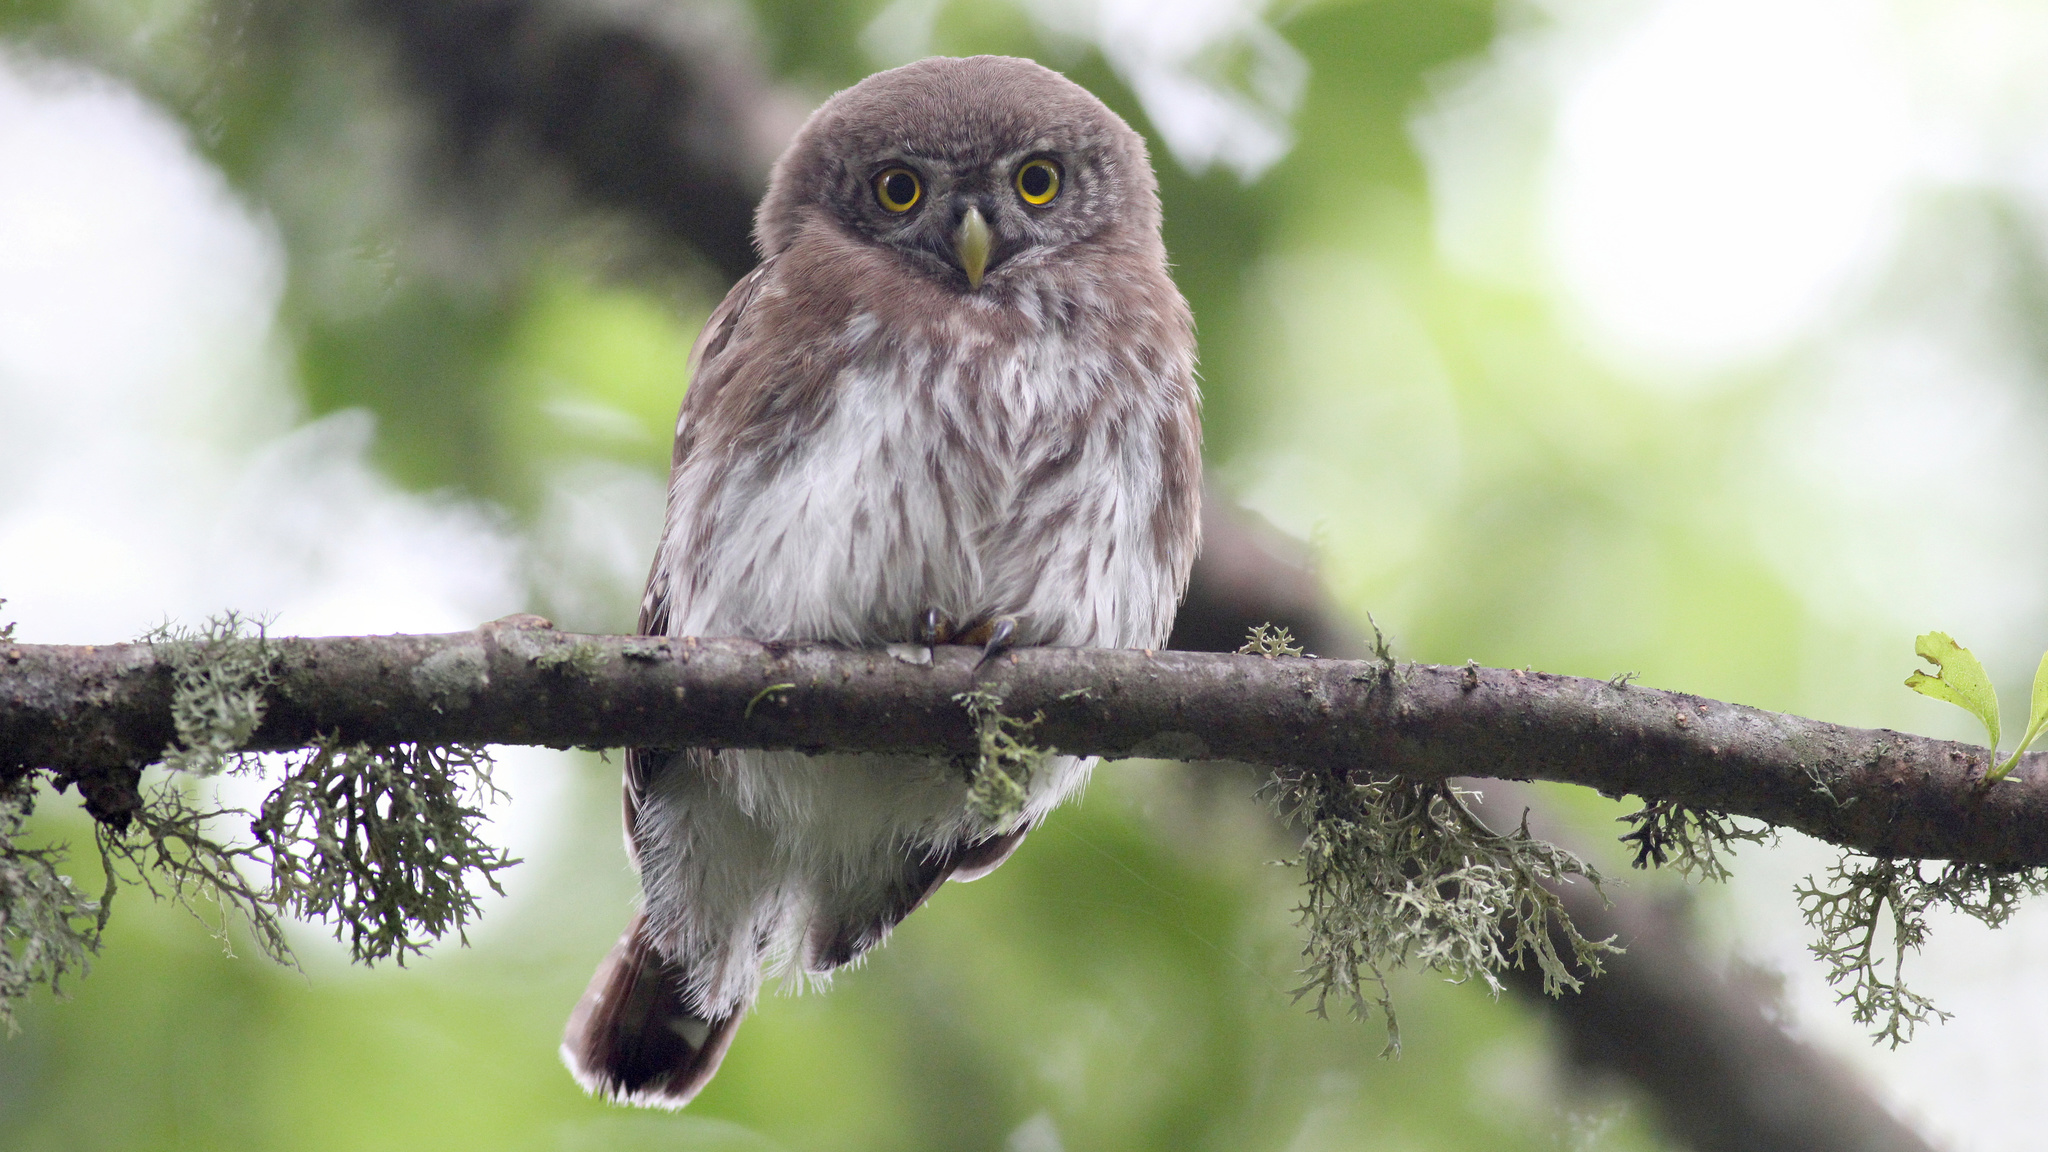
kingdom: Animalia
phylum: Chordata
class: Aves
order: Strigiformes
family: Strigidae
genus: Glaucidium
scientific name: Glaucidium passerinum
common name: Eurasian pygmy owl
